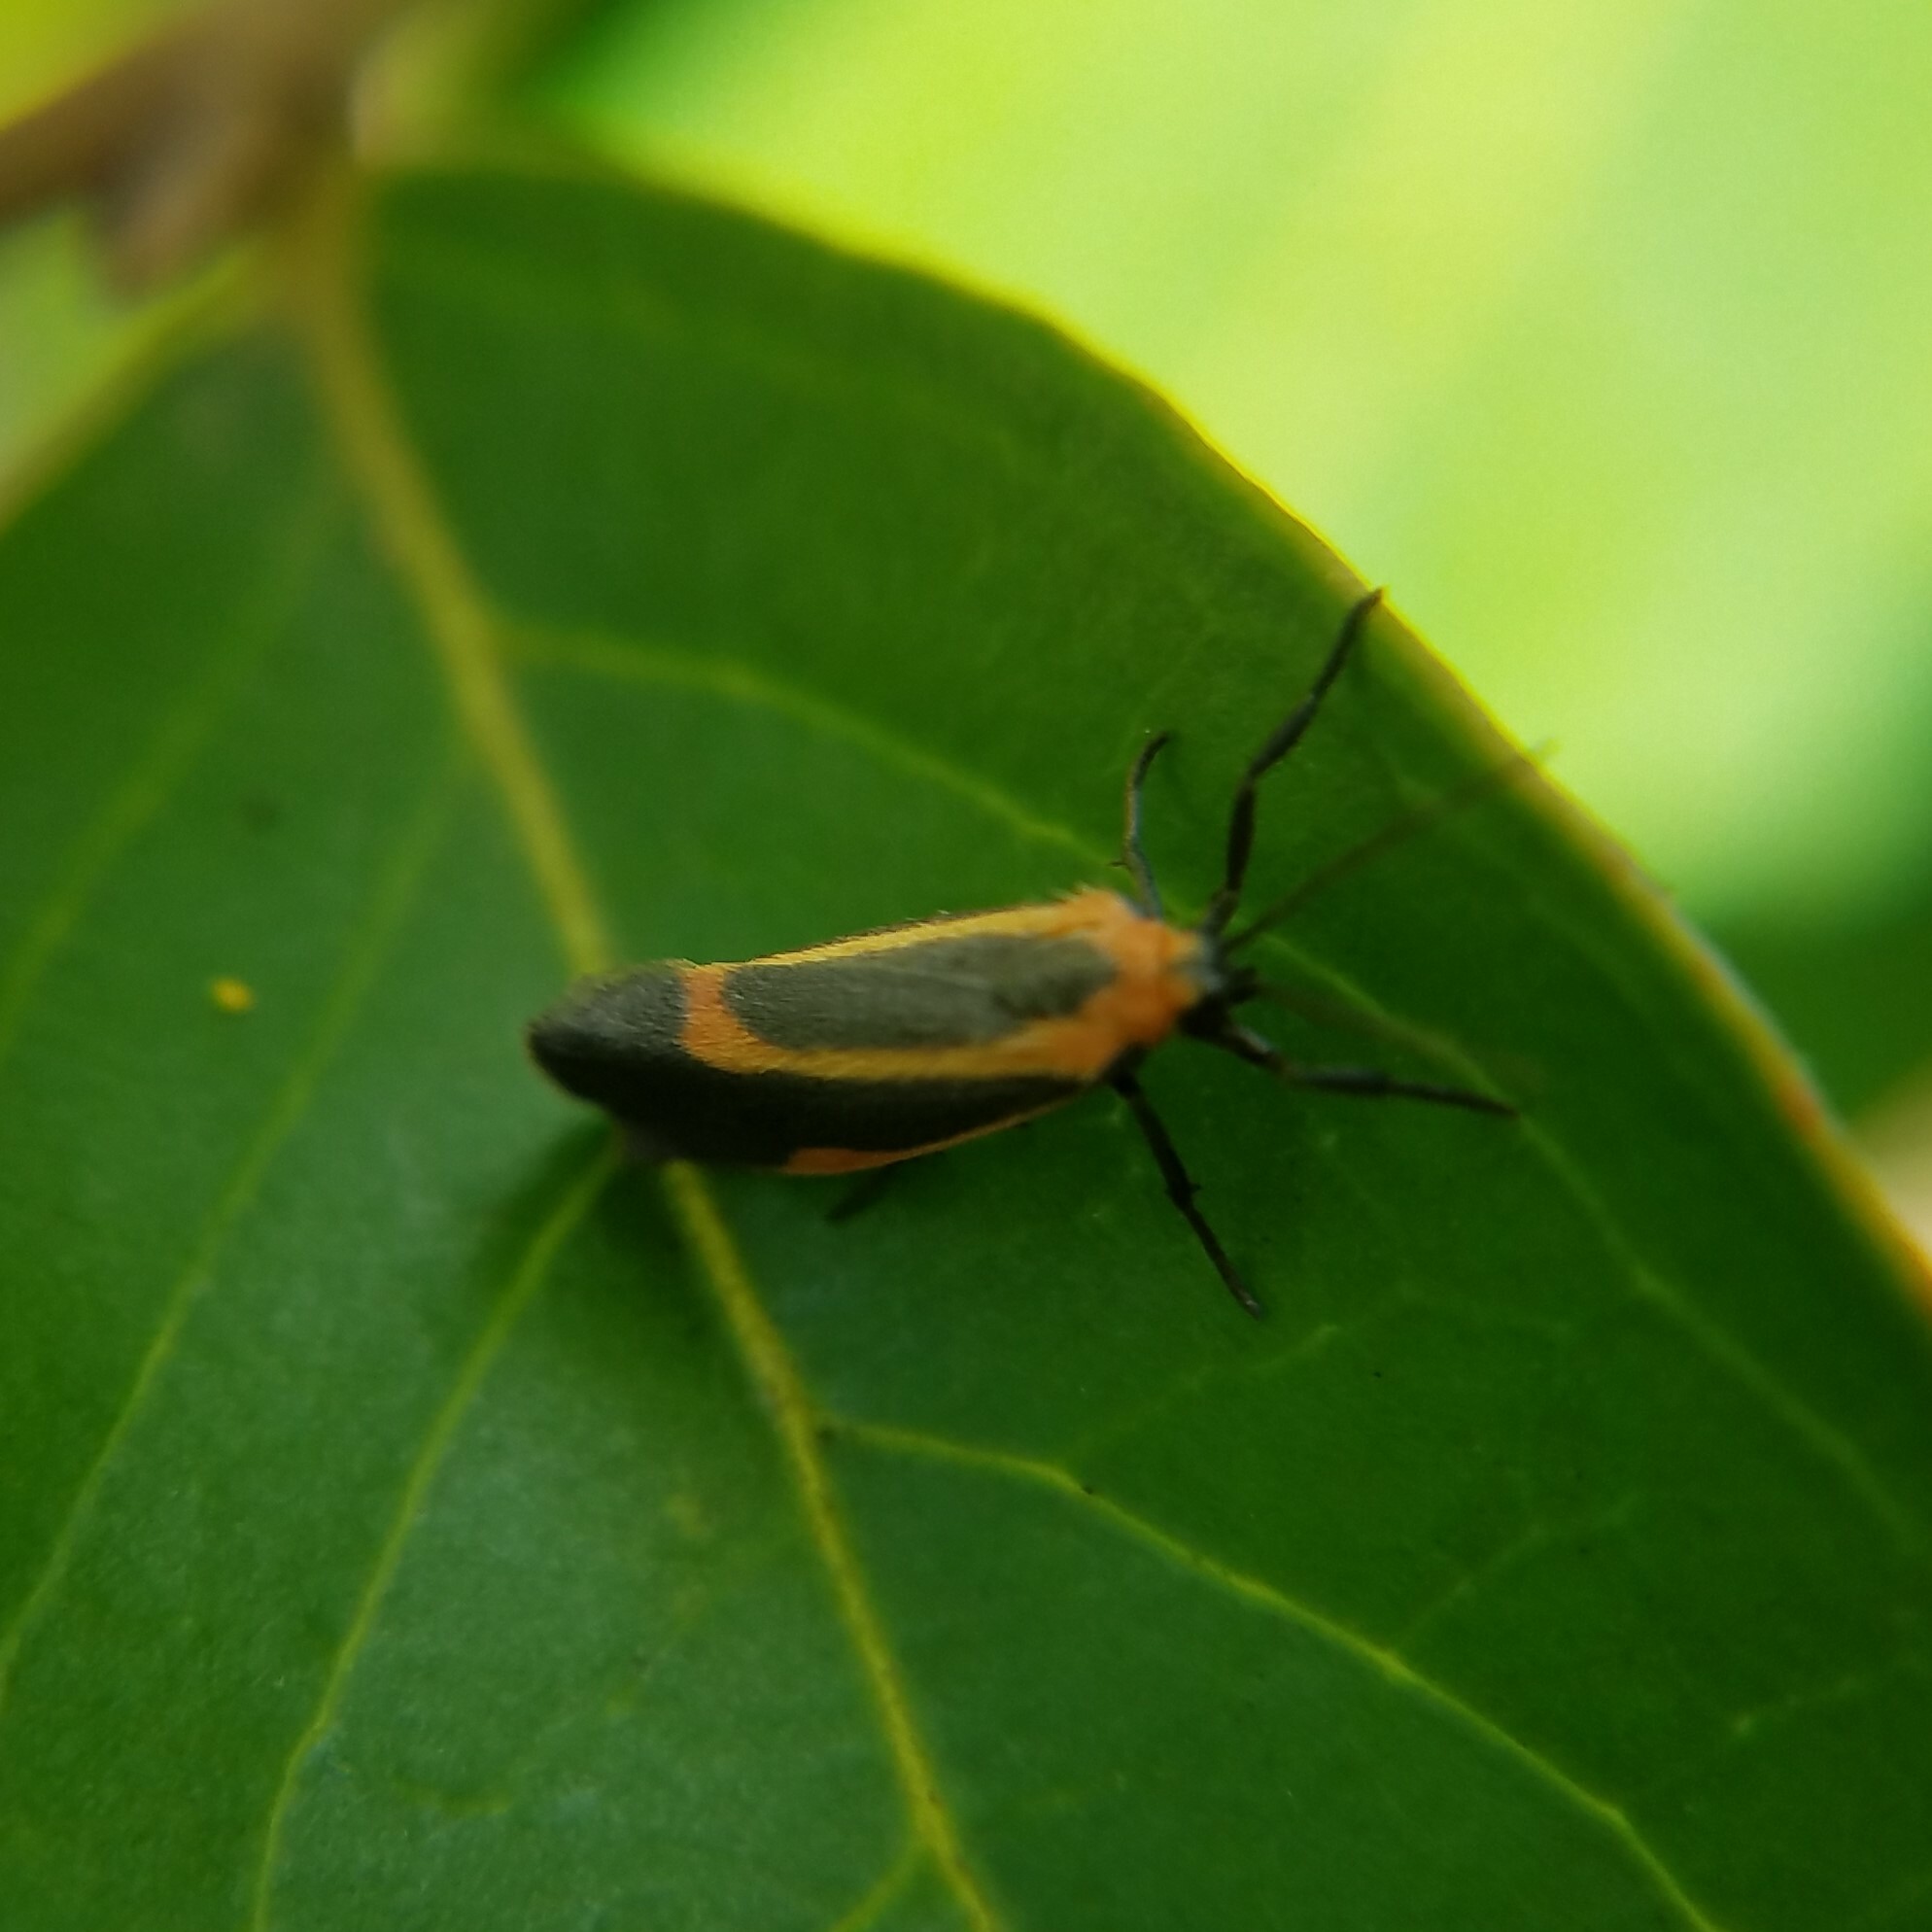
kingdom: Animalia
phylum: Arthropoda
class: Insecta
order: Lepidoptera
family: Erebidae
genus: Cisthene
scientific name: Cisthene subjecta
